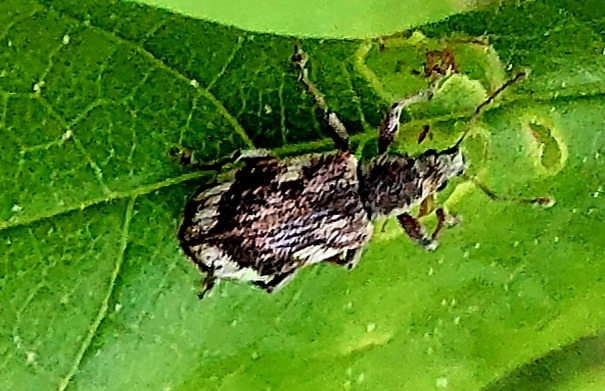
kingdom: Animalia
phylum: Arthropoda
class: Insecta
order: Coleoptera
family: Curculionidae
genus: Polydrusus
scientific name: Polydrusus tereticollis
